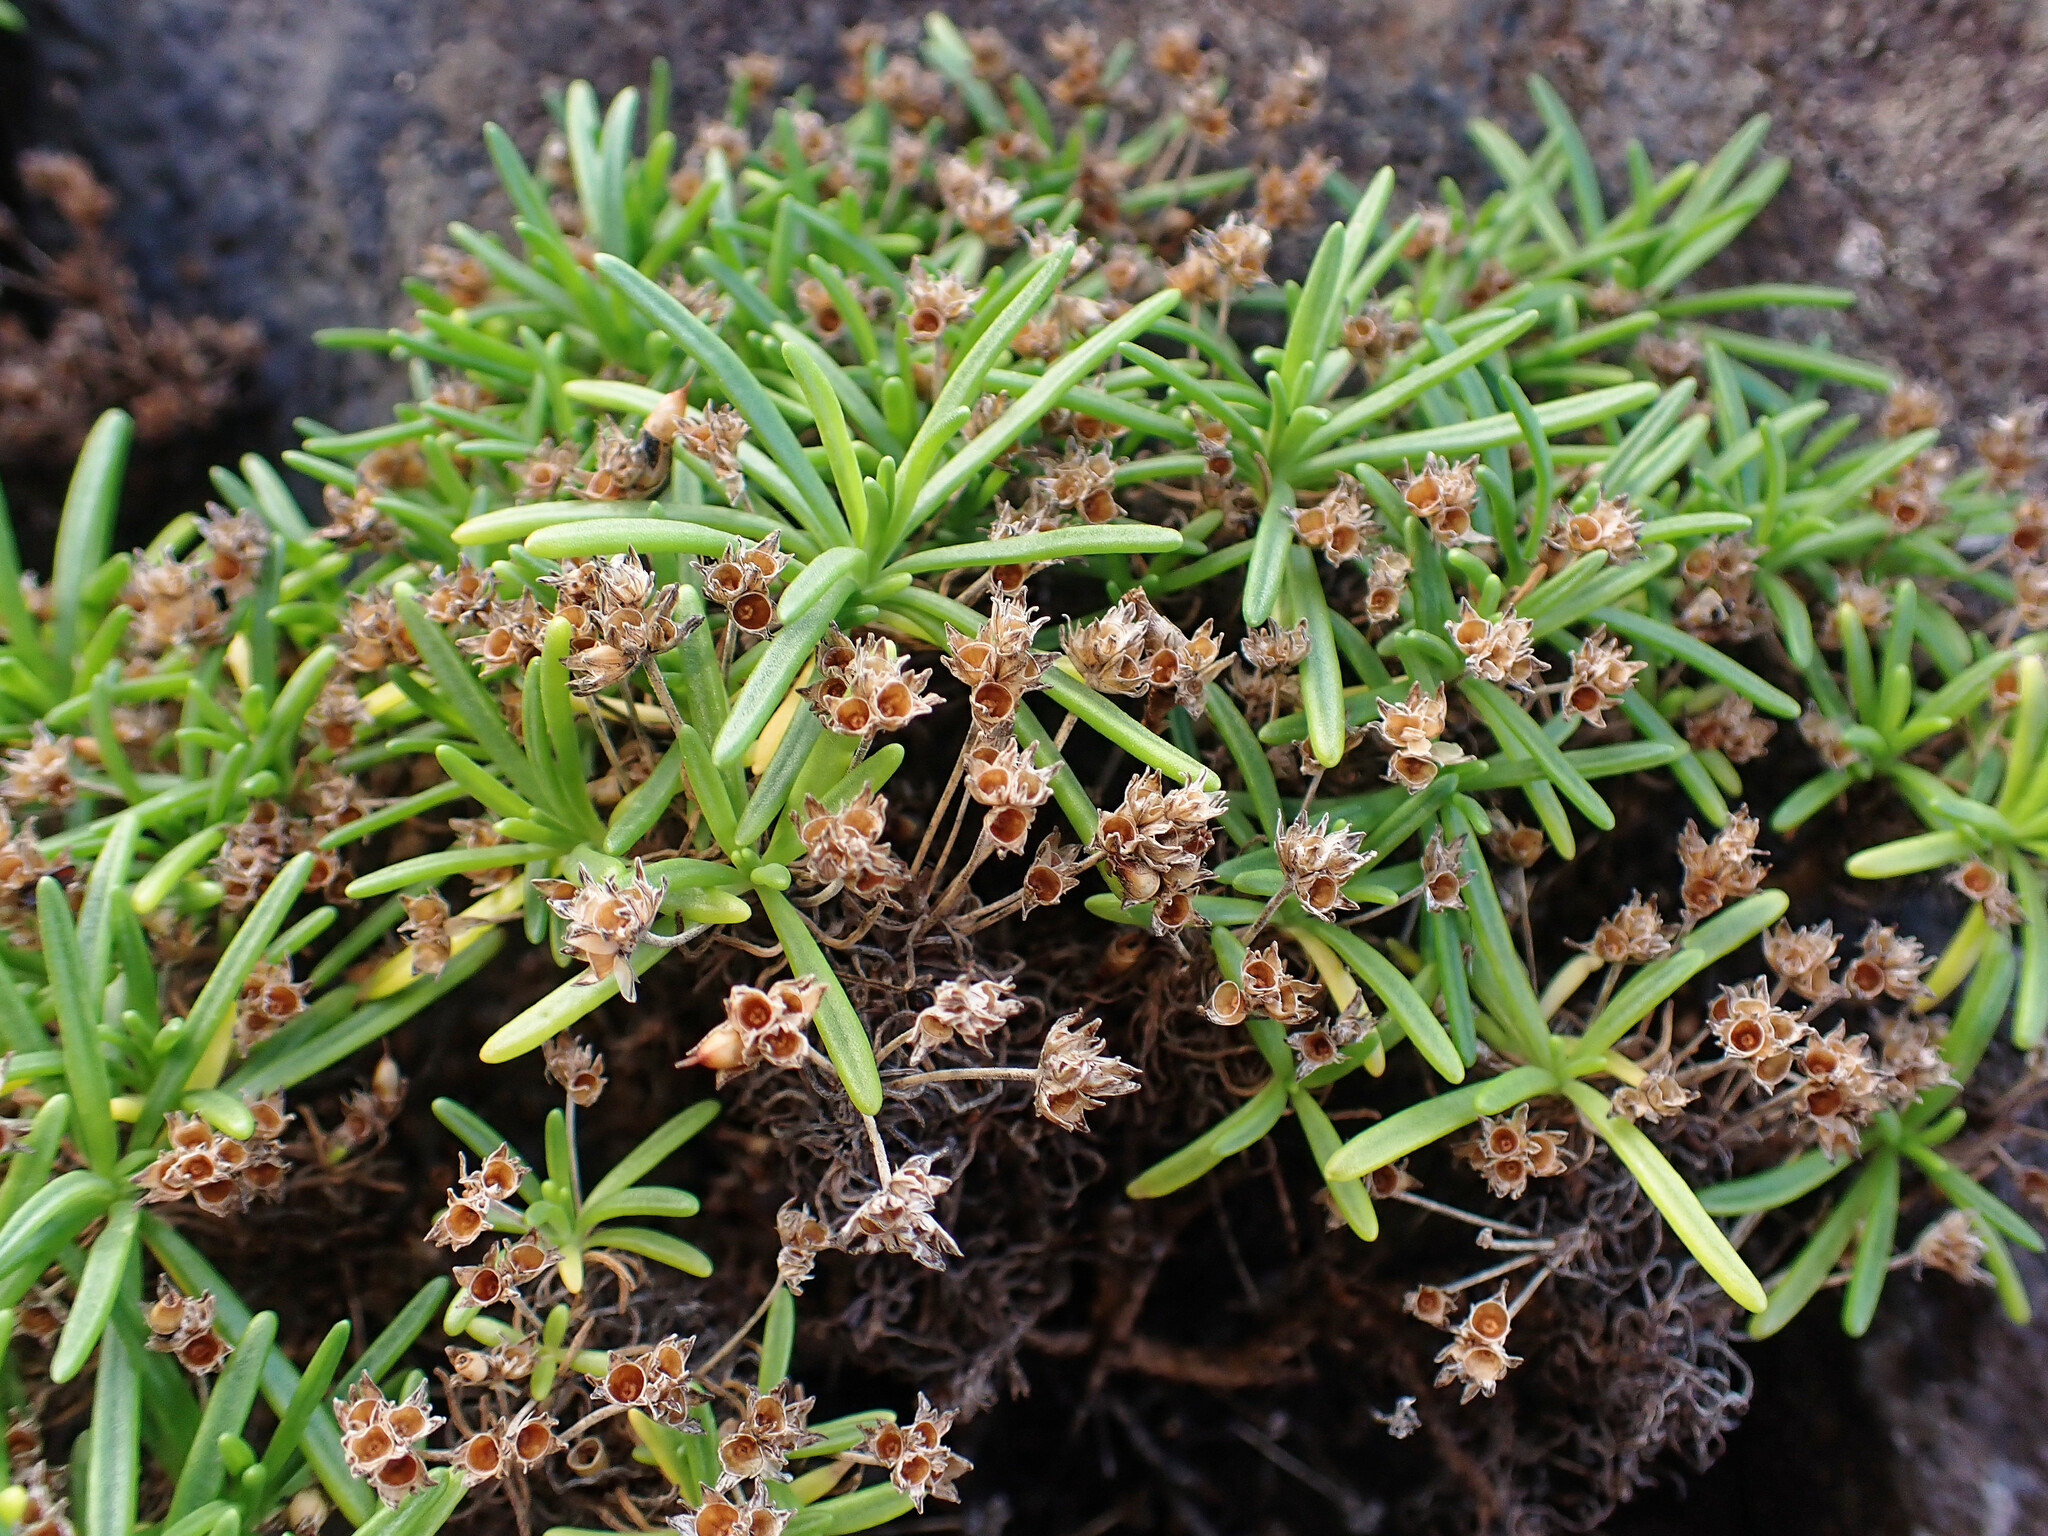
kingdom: Plantae
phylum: Tracheophyta
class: Magnoliopsida
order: Lamiales
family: Plantaginaceae
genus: Plantago
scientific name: Plantago arborescens
